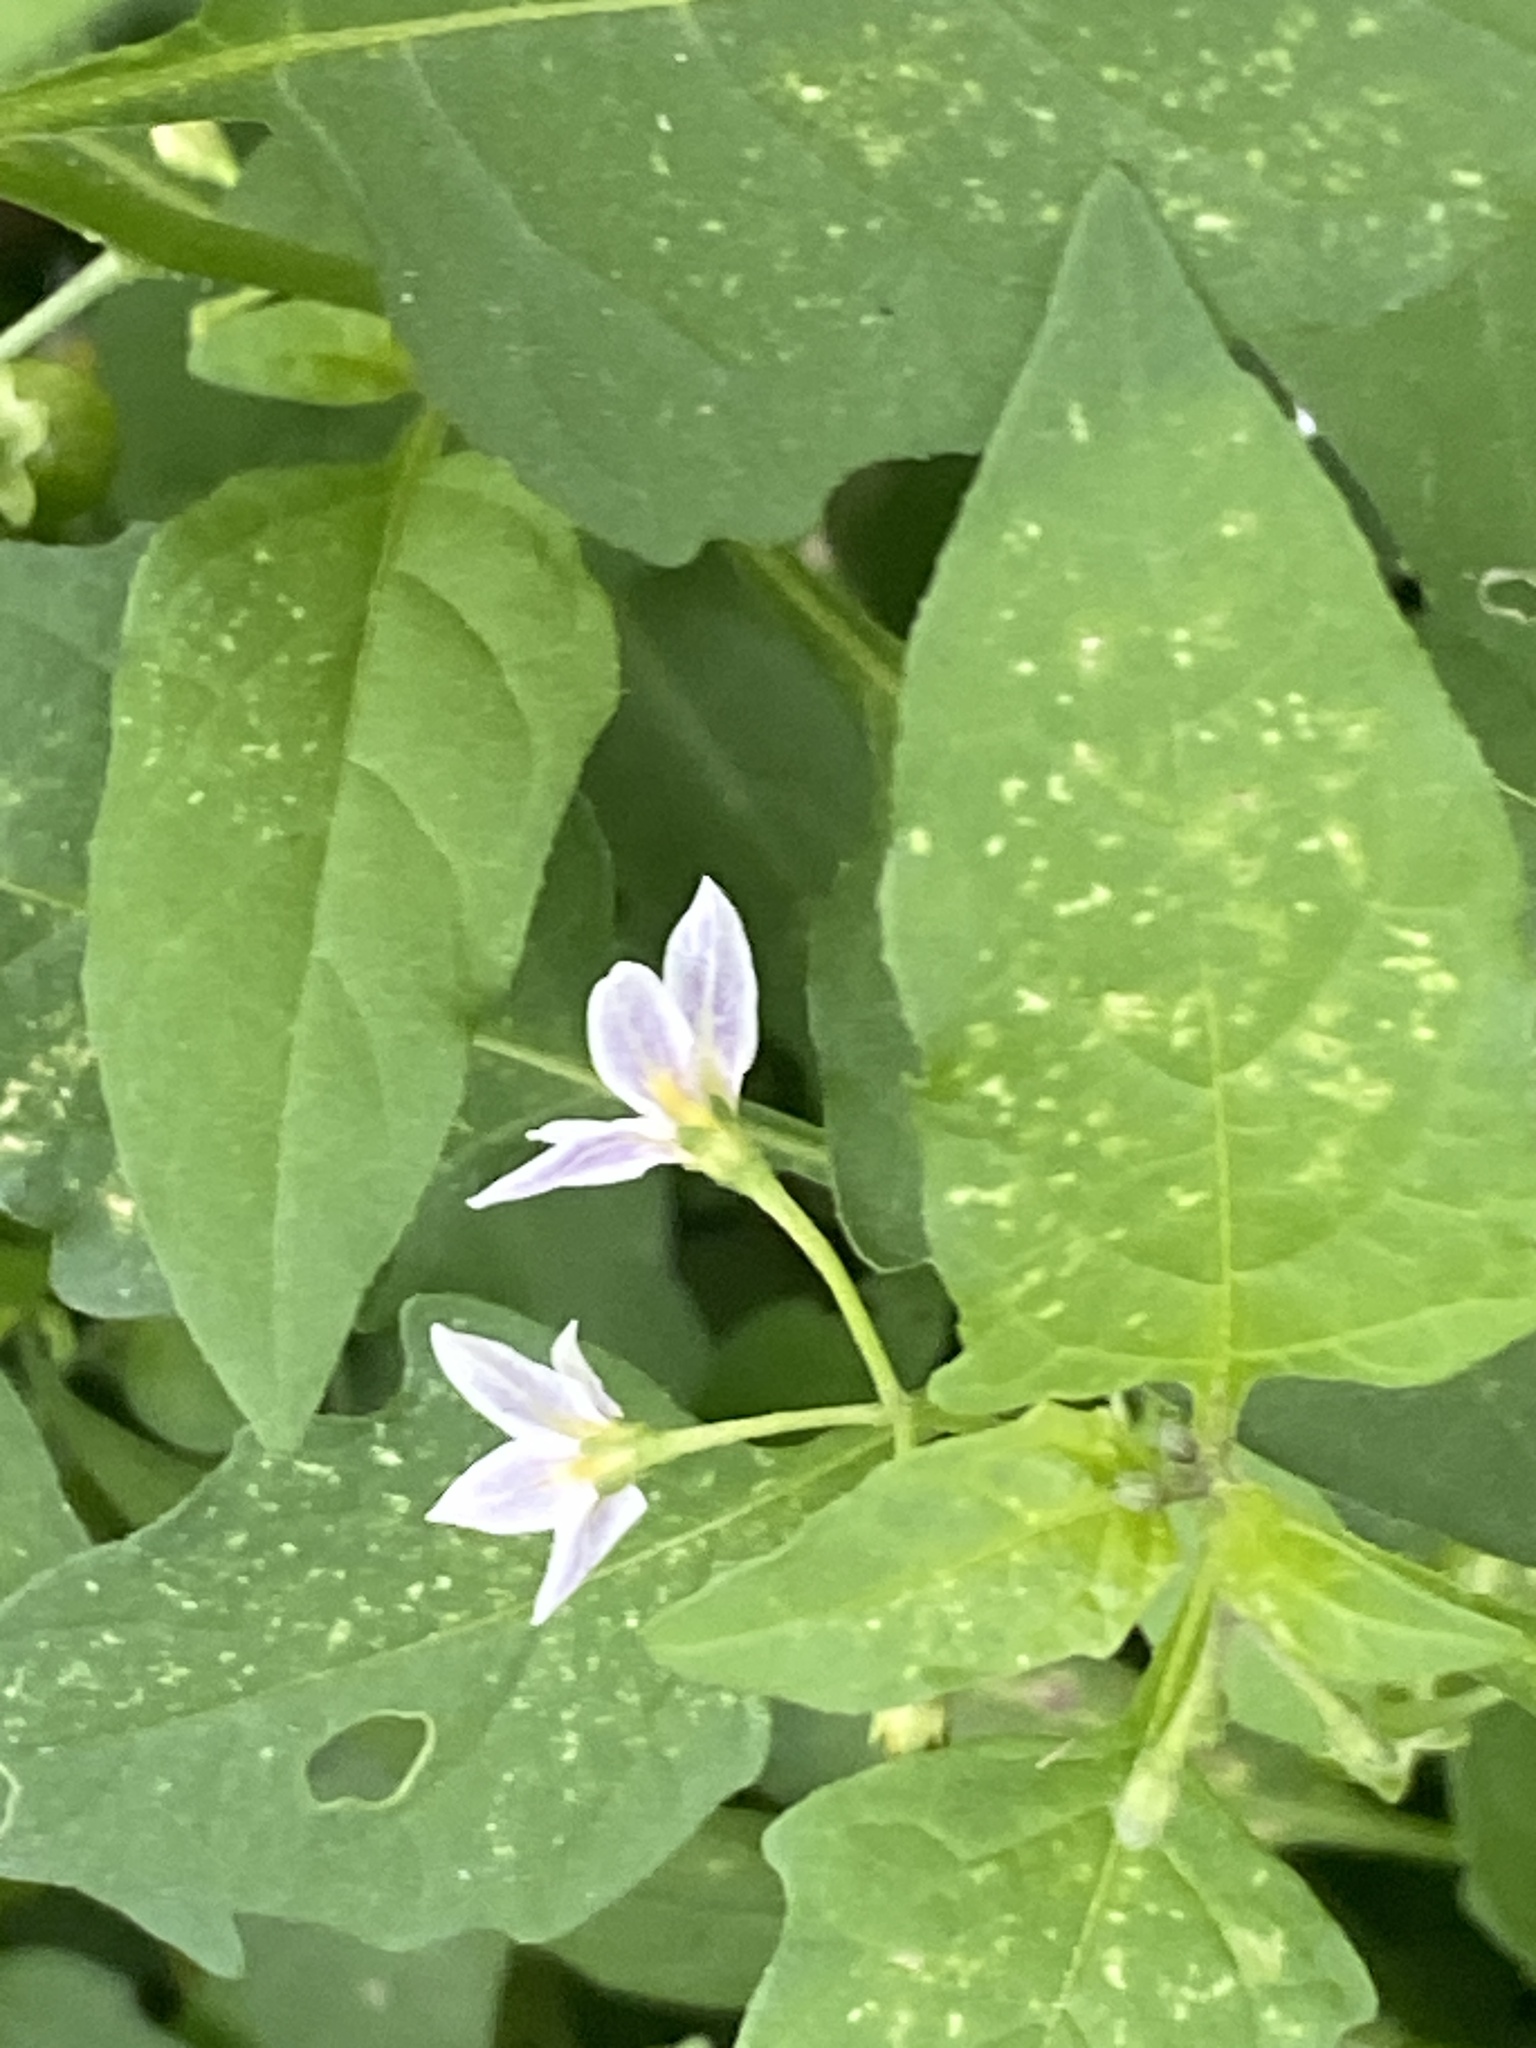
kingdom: Plantae
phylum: Tracheophyta
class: Magnoliopsida
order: Solanales
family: Solanaceae
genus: Solanum
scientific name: Solanum emulans
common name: Eastern black nightshade
